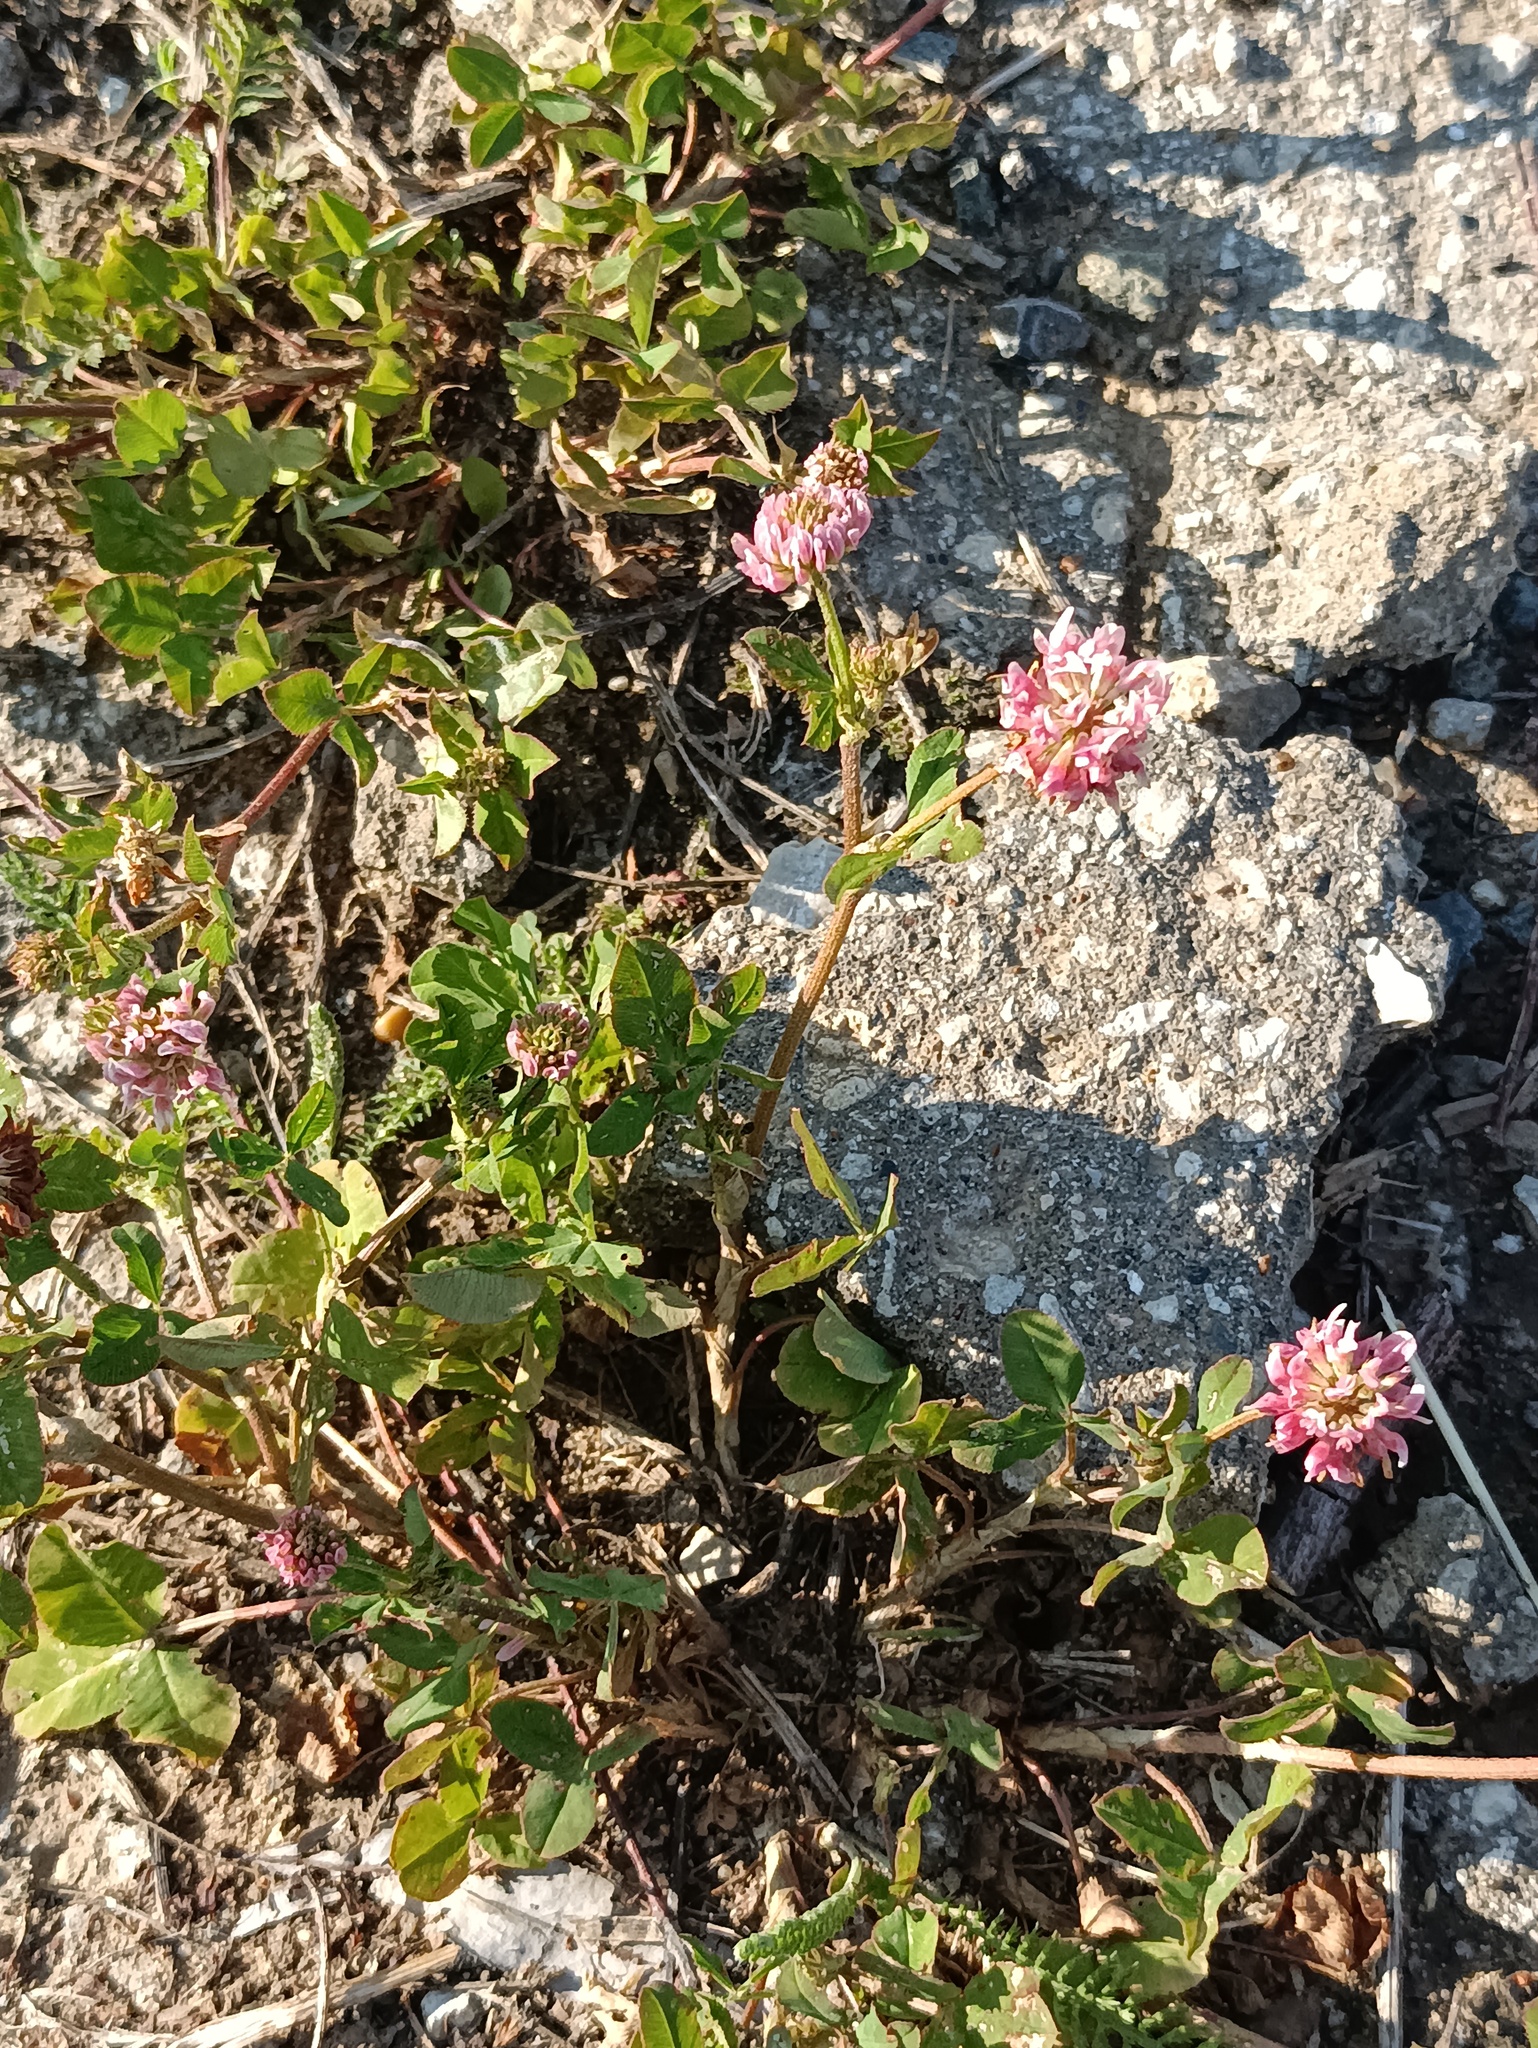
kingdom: Plantae
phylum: Tracheophyta
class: Magnoliopsida
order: Fabales
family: Fabaceae
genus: Trifolium
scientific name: Trifolium hybridum
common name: Alsike clover
